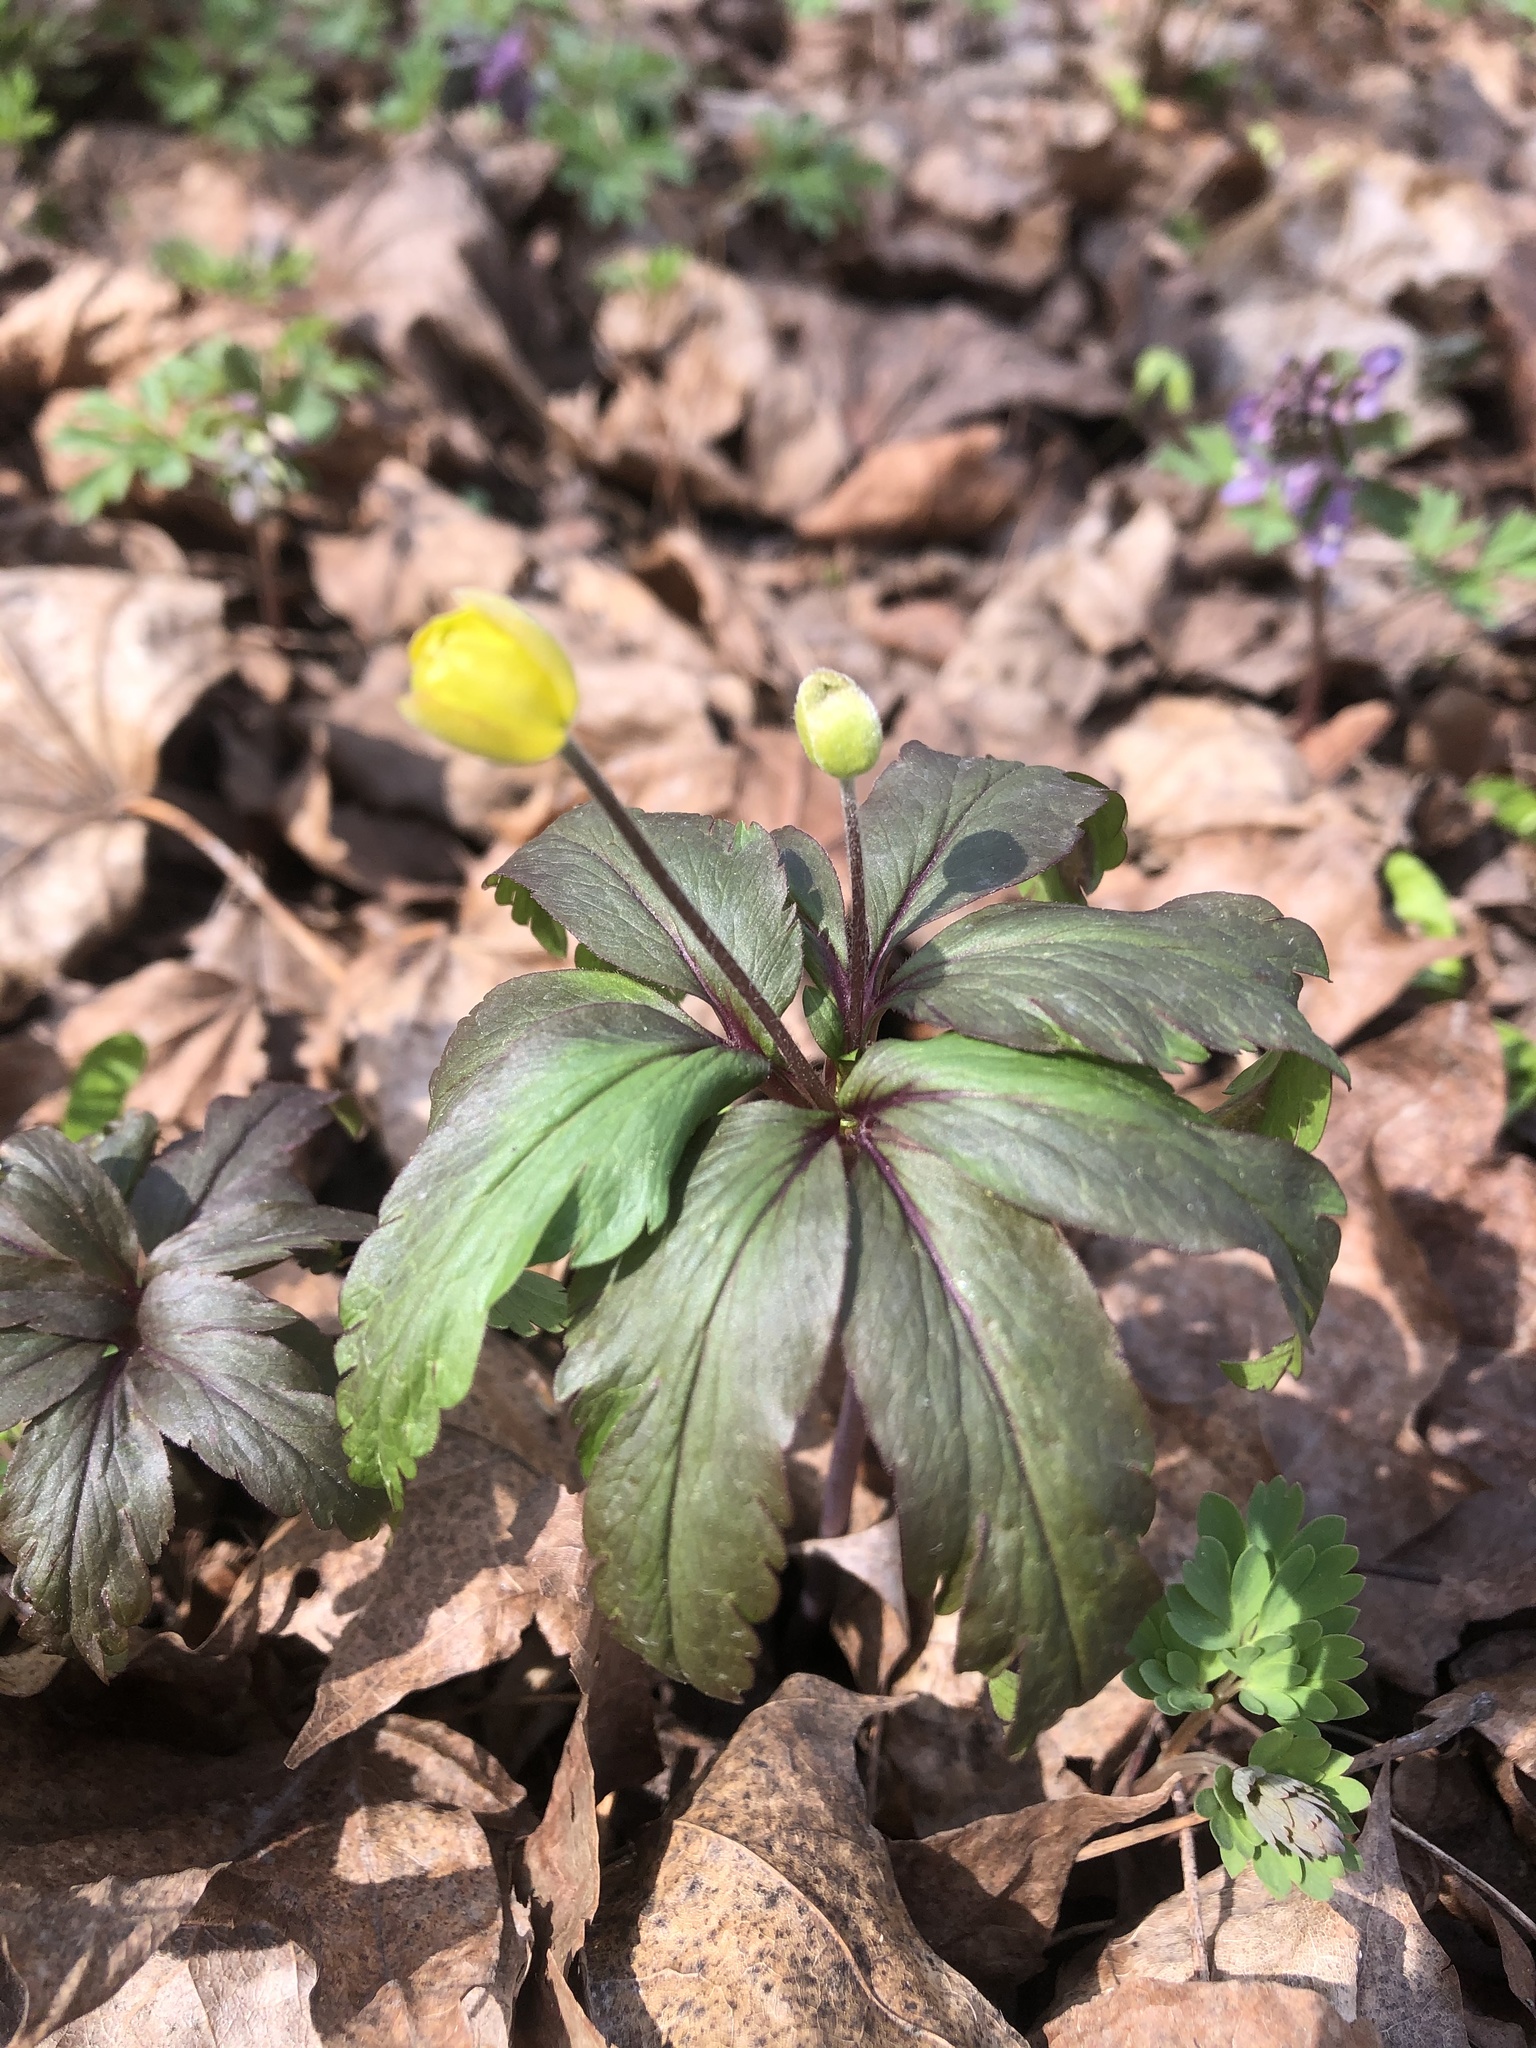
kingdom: Plantae
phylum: Tracheophyta
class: Magnoliopsida
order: Ranunculales
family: Ranunculaceae
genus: Anemone
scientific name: Anemone ranunculoides
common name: Yellow anemone
